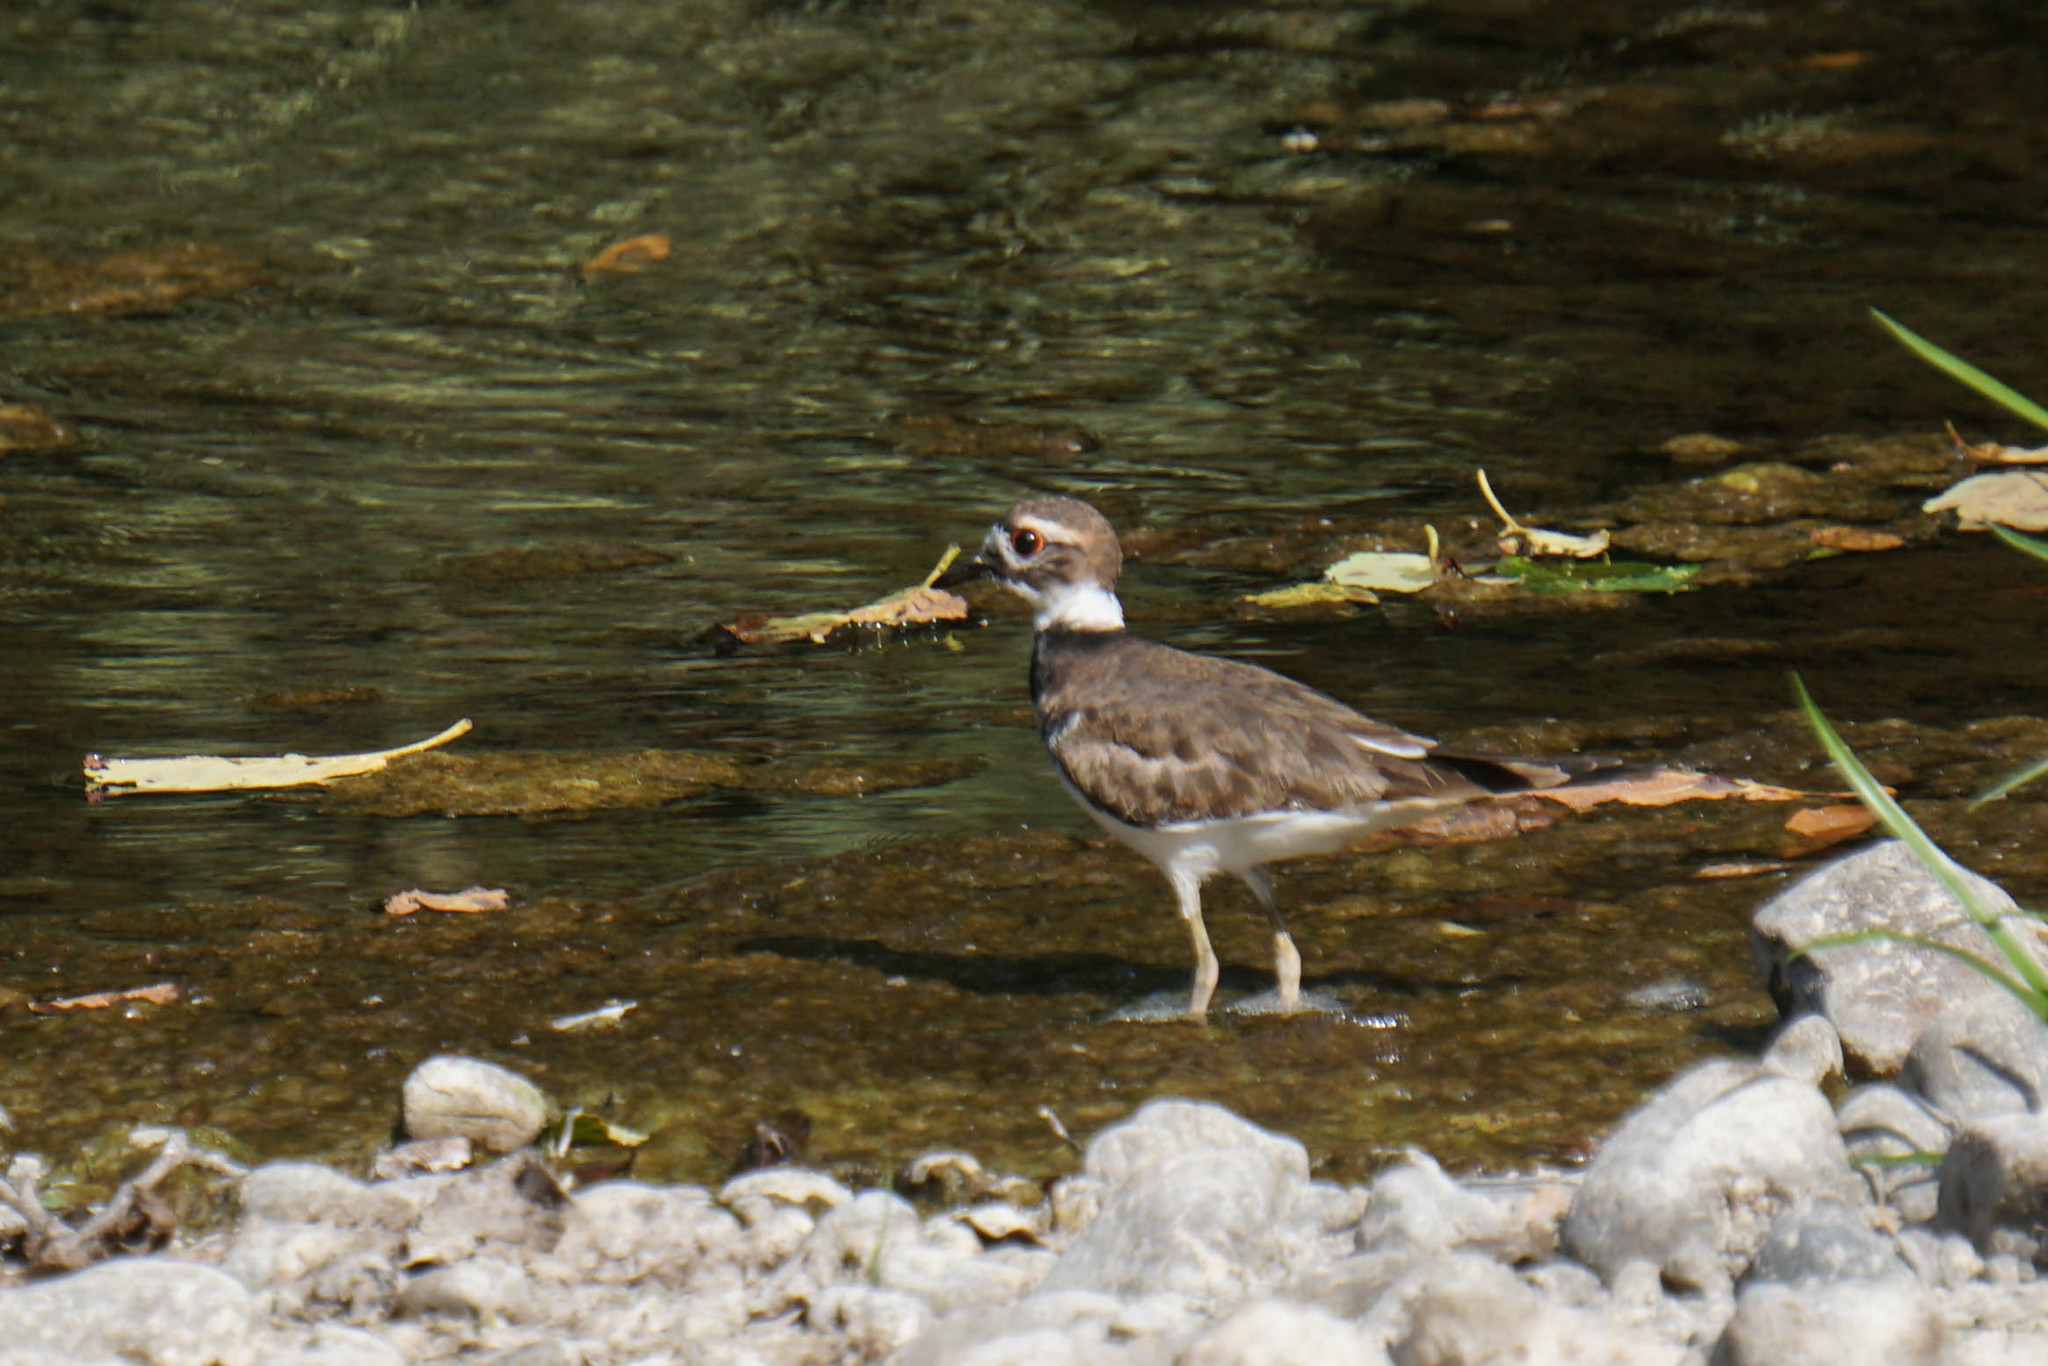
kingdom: Animalia
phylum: Chordata
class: Aves
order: Charadriiformes
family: Charadriidae
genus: Charadrius
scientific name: Charadrius vociferus
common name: Killdeer
